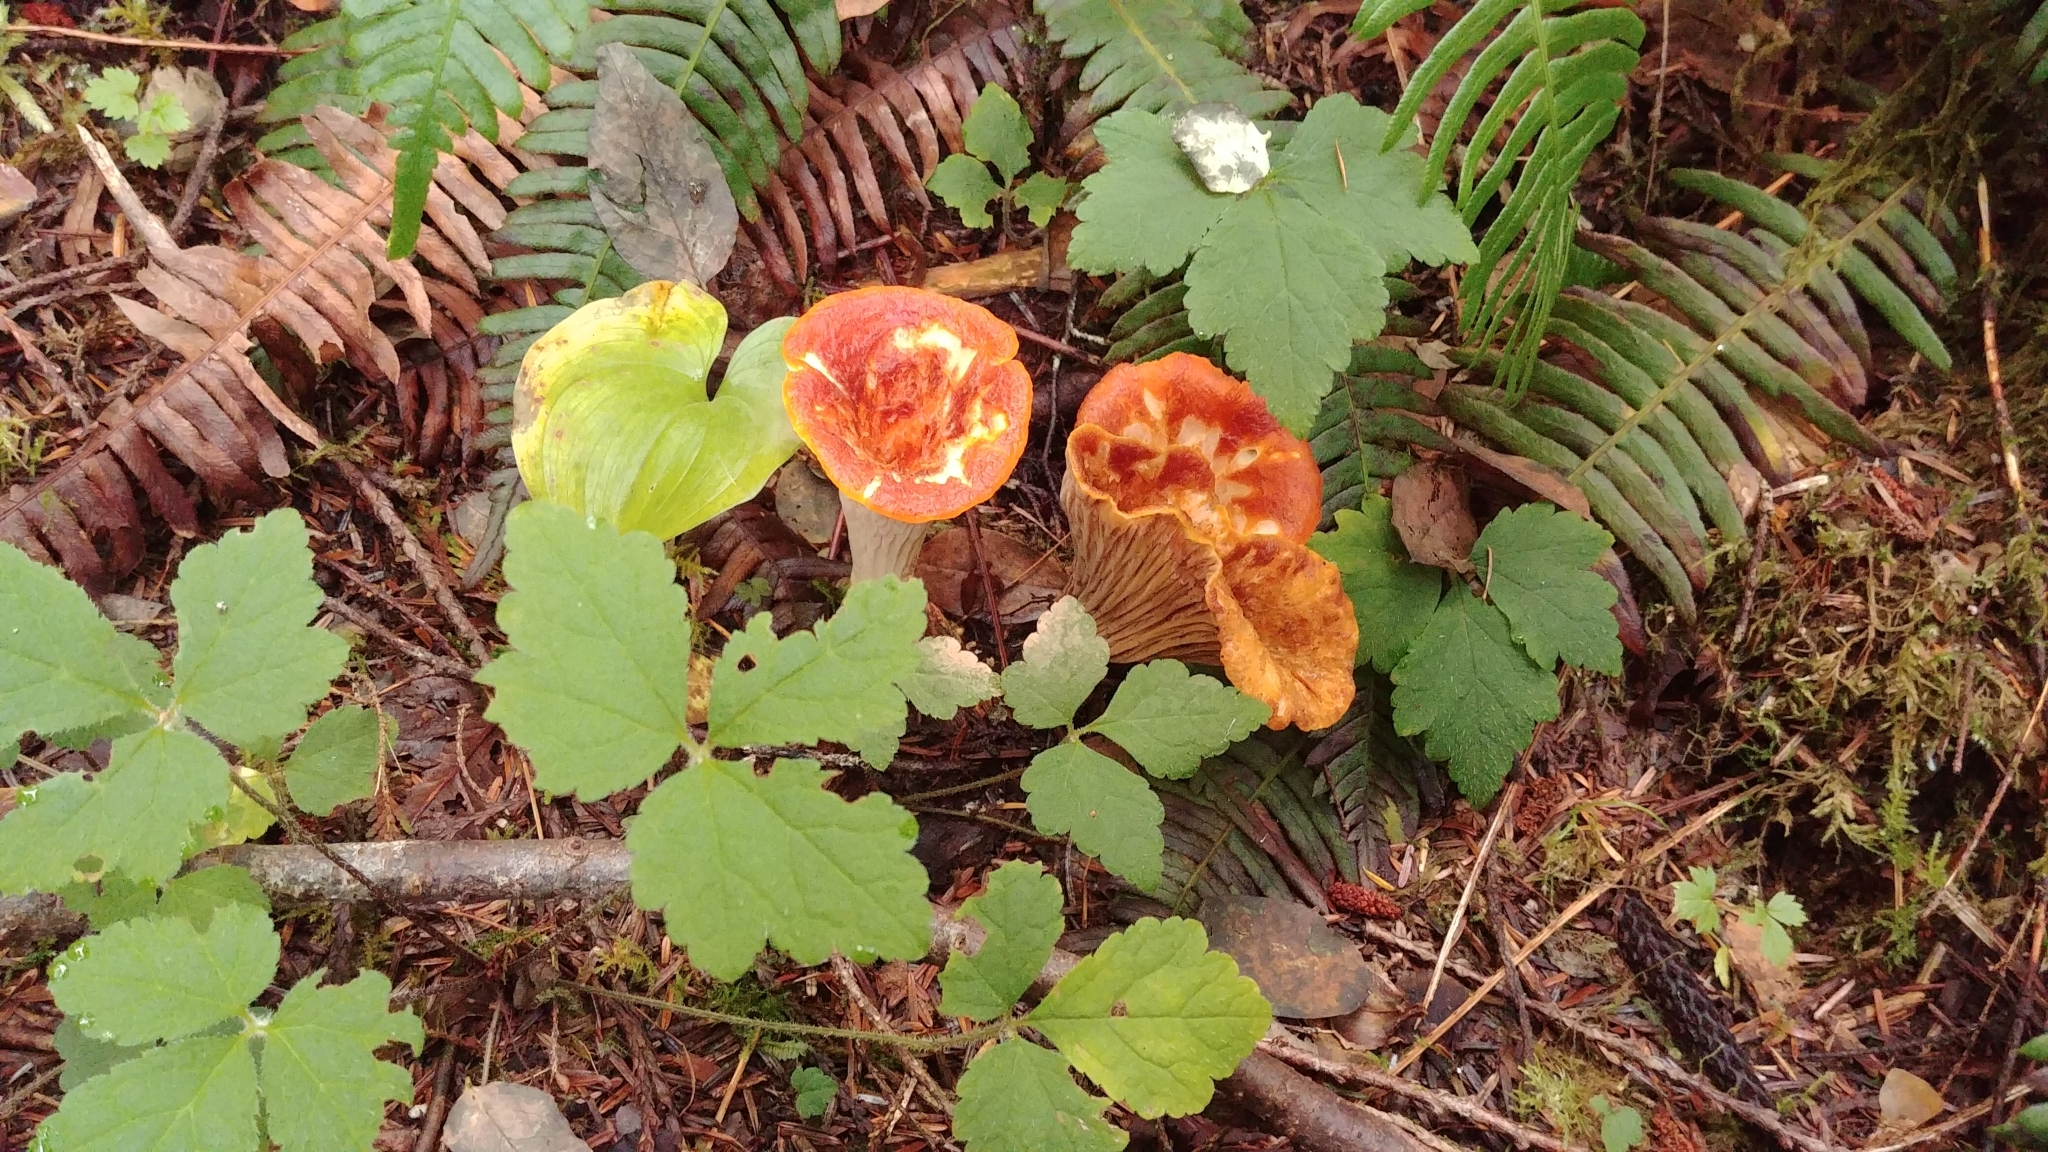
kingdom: Fungi
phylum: Basidiomycota
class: Agaricomycetes
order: Gomphales
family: Gomphaceae
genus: Turbinellus
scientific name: Turbinellus floccosus
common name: Scaly chanterelle
